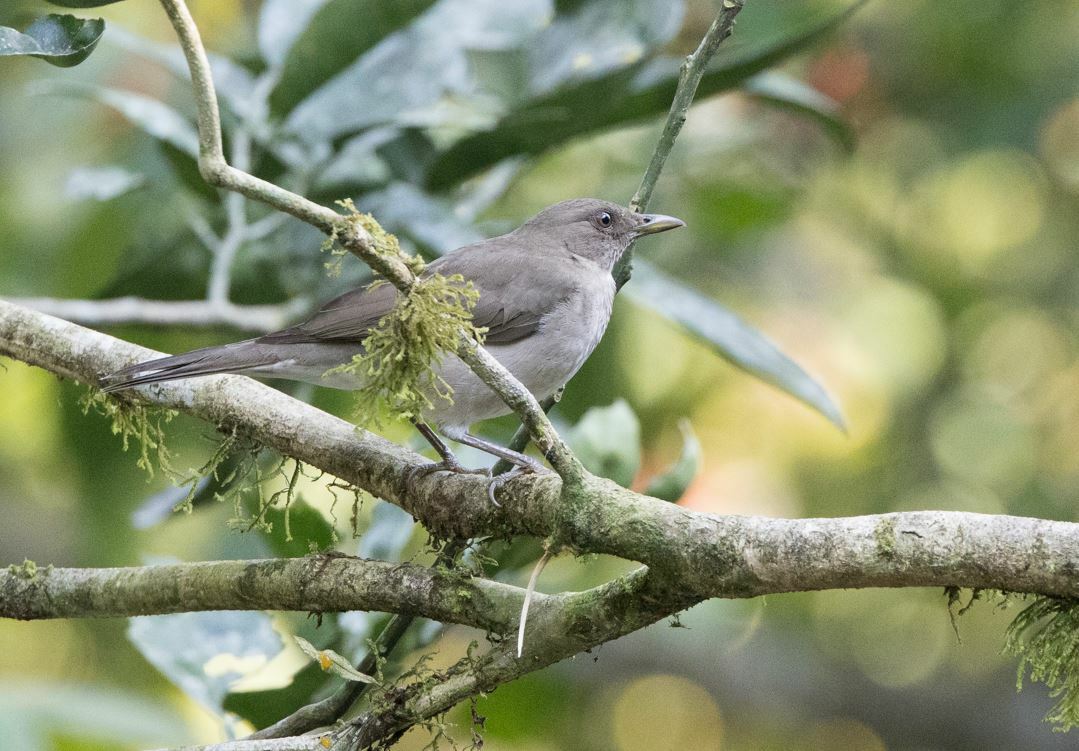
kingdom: Animalia
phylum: Chordata
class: Aves
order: Passeriformes
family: Turdidae
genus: Turdus
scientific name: Turdus ignobilis
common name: Black-billed thrush
